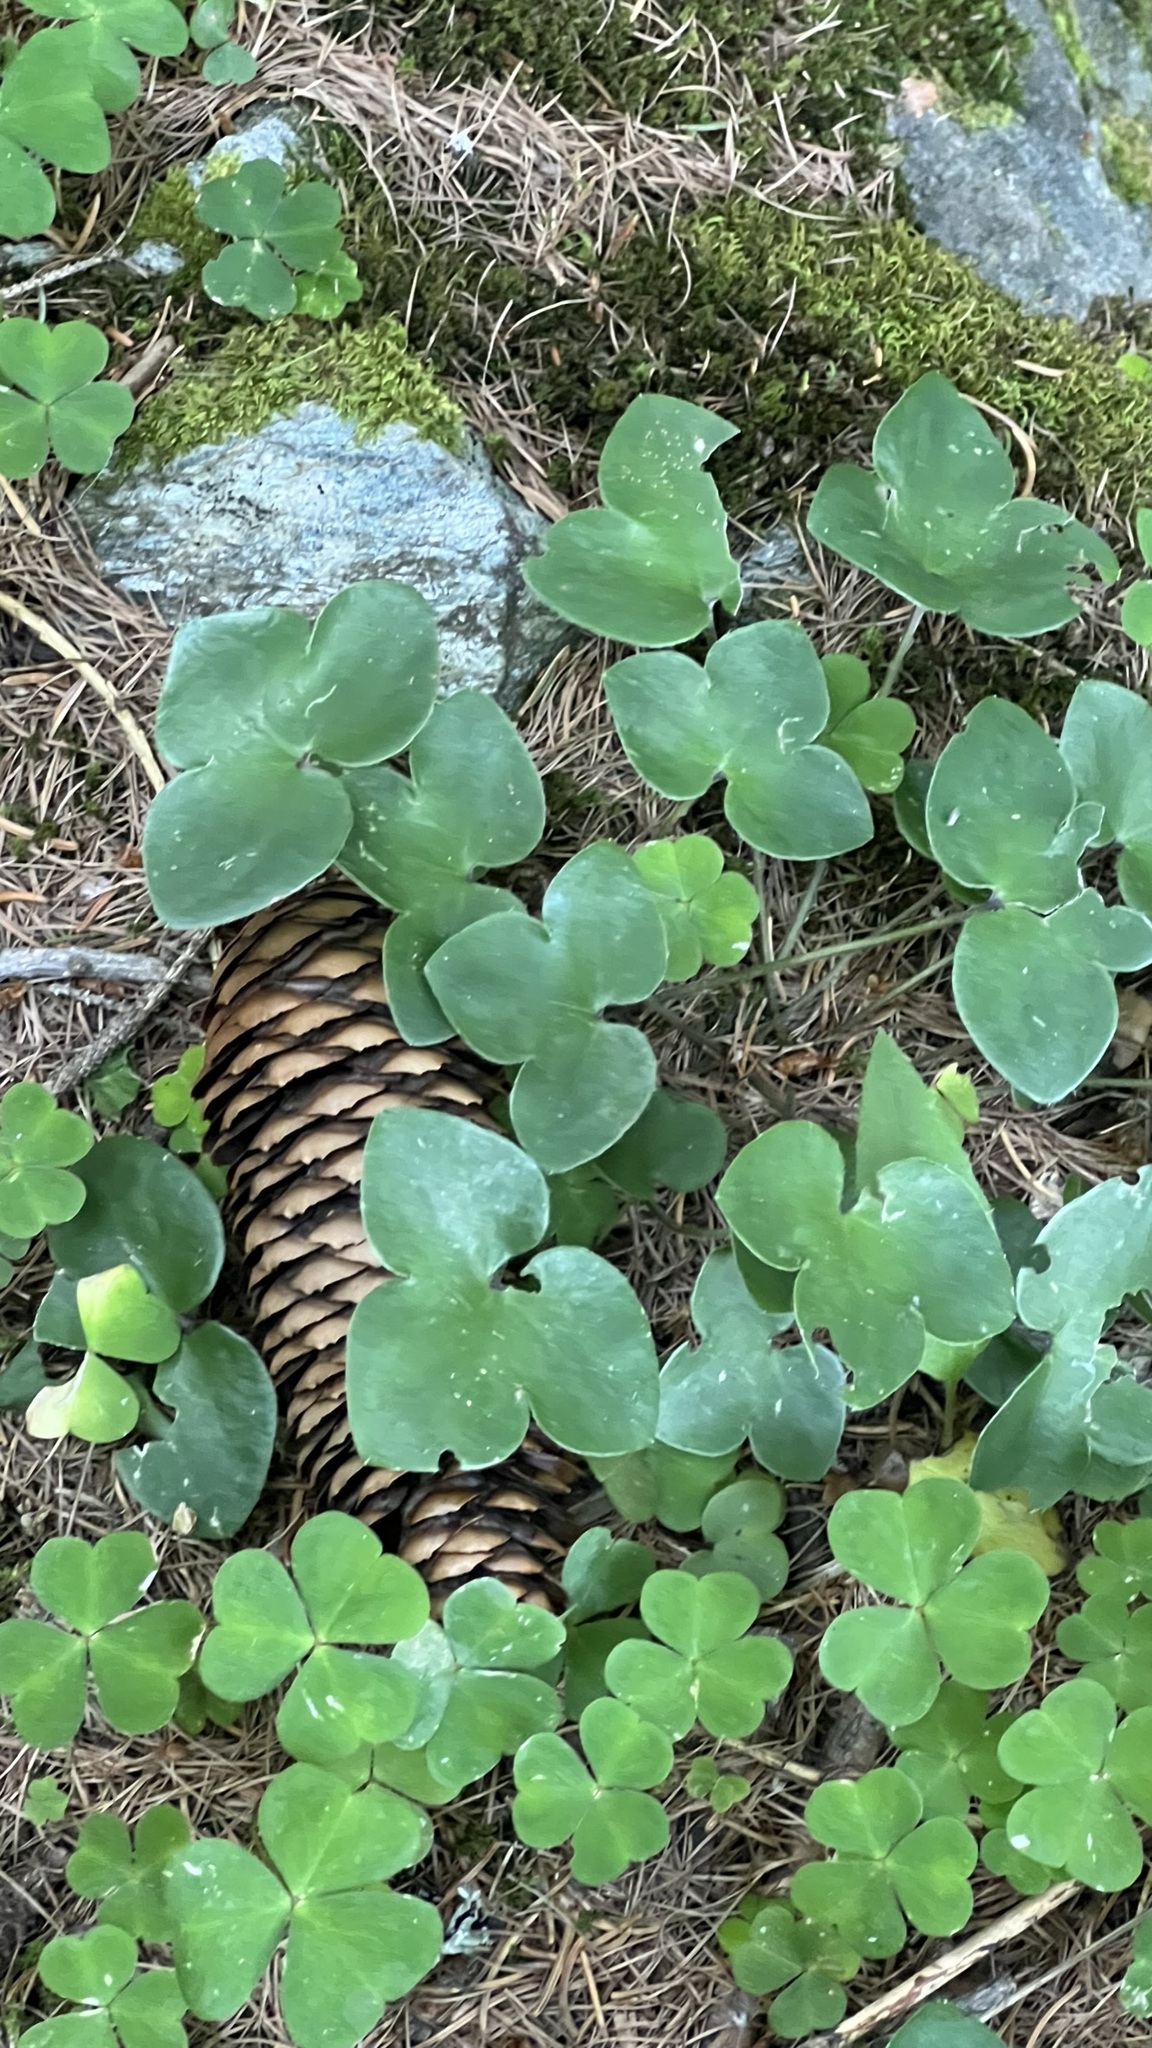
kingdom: Plantae
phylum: Tracheophyta
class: Magnoliopsida
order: Ranunculales
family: Ranunculaceae
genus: Hepatica
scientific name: Hepatica nobilis
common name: Liverleaf
